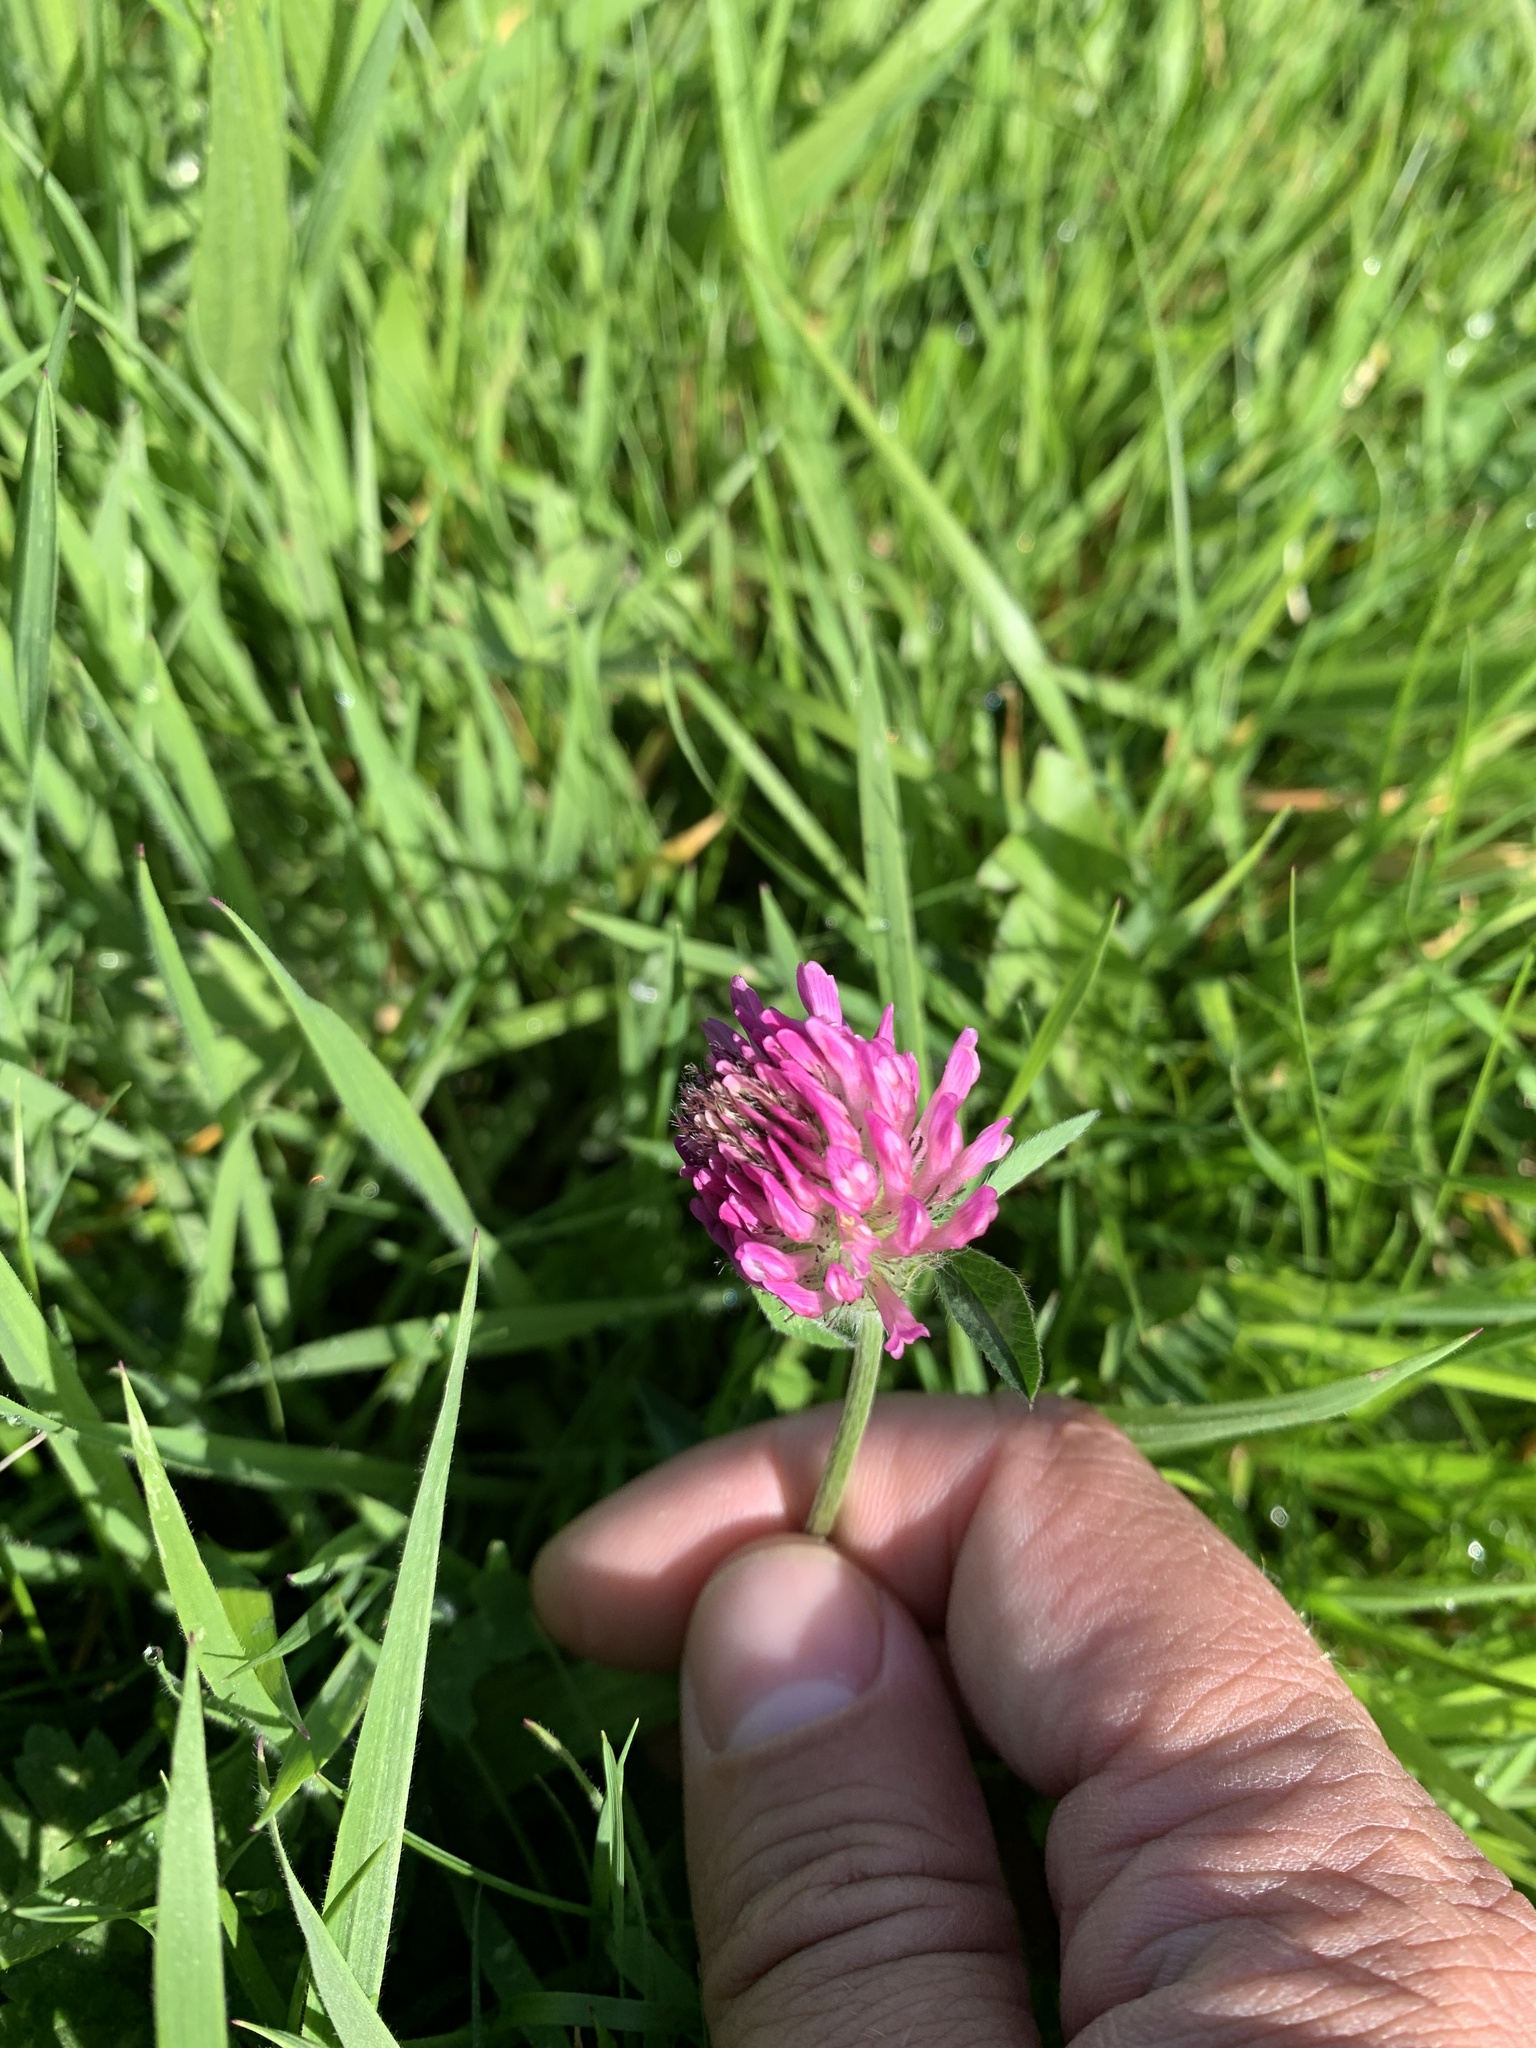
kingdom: Plantae
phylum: Tracheophyta
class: Magnoliopsida
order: Fabales
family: Fabaceae
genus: Trifolium
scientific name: Trifolium pratense
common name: Red clover
